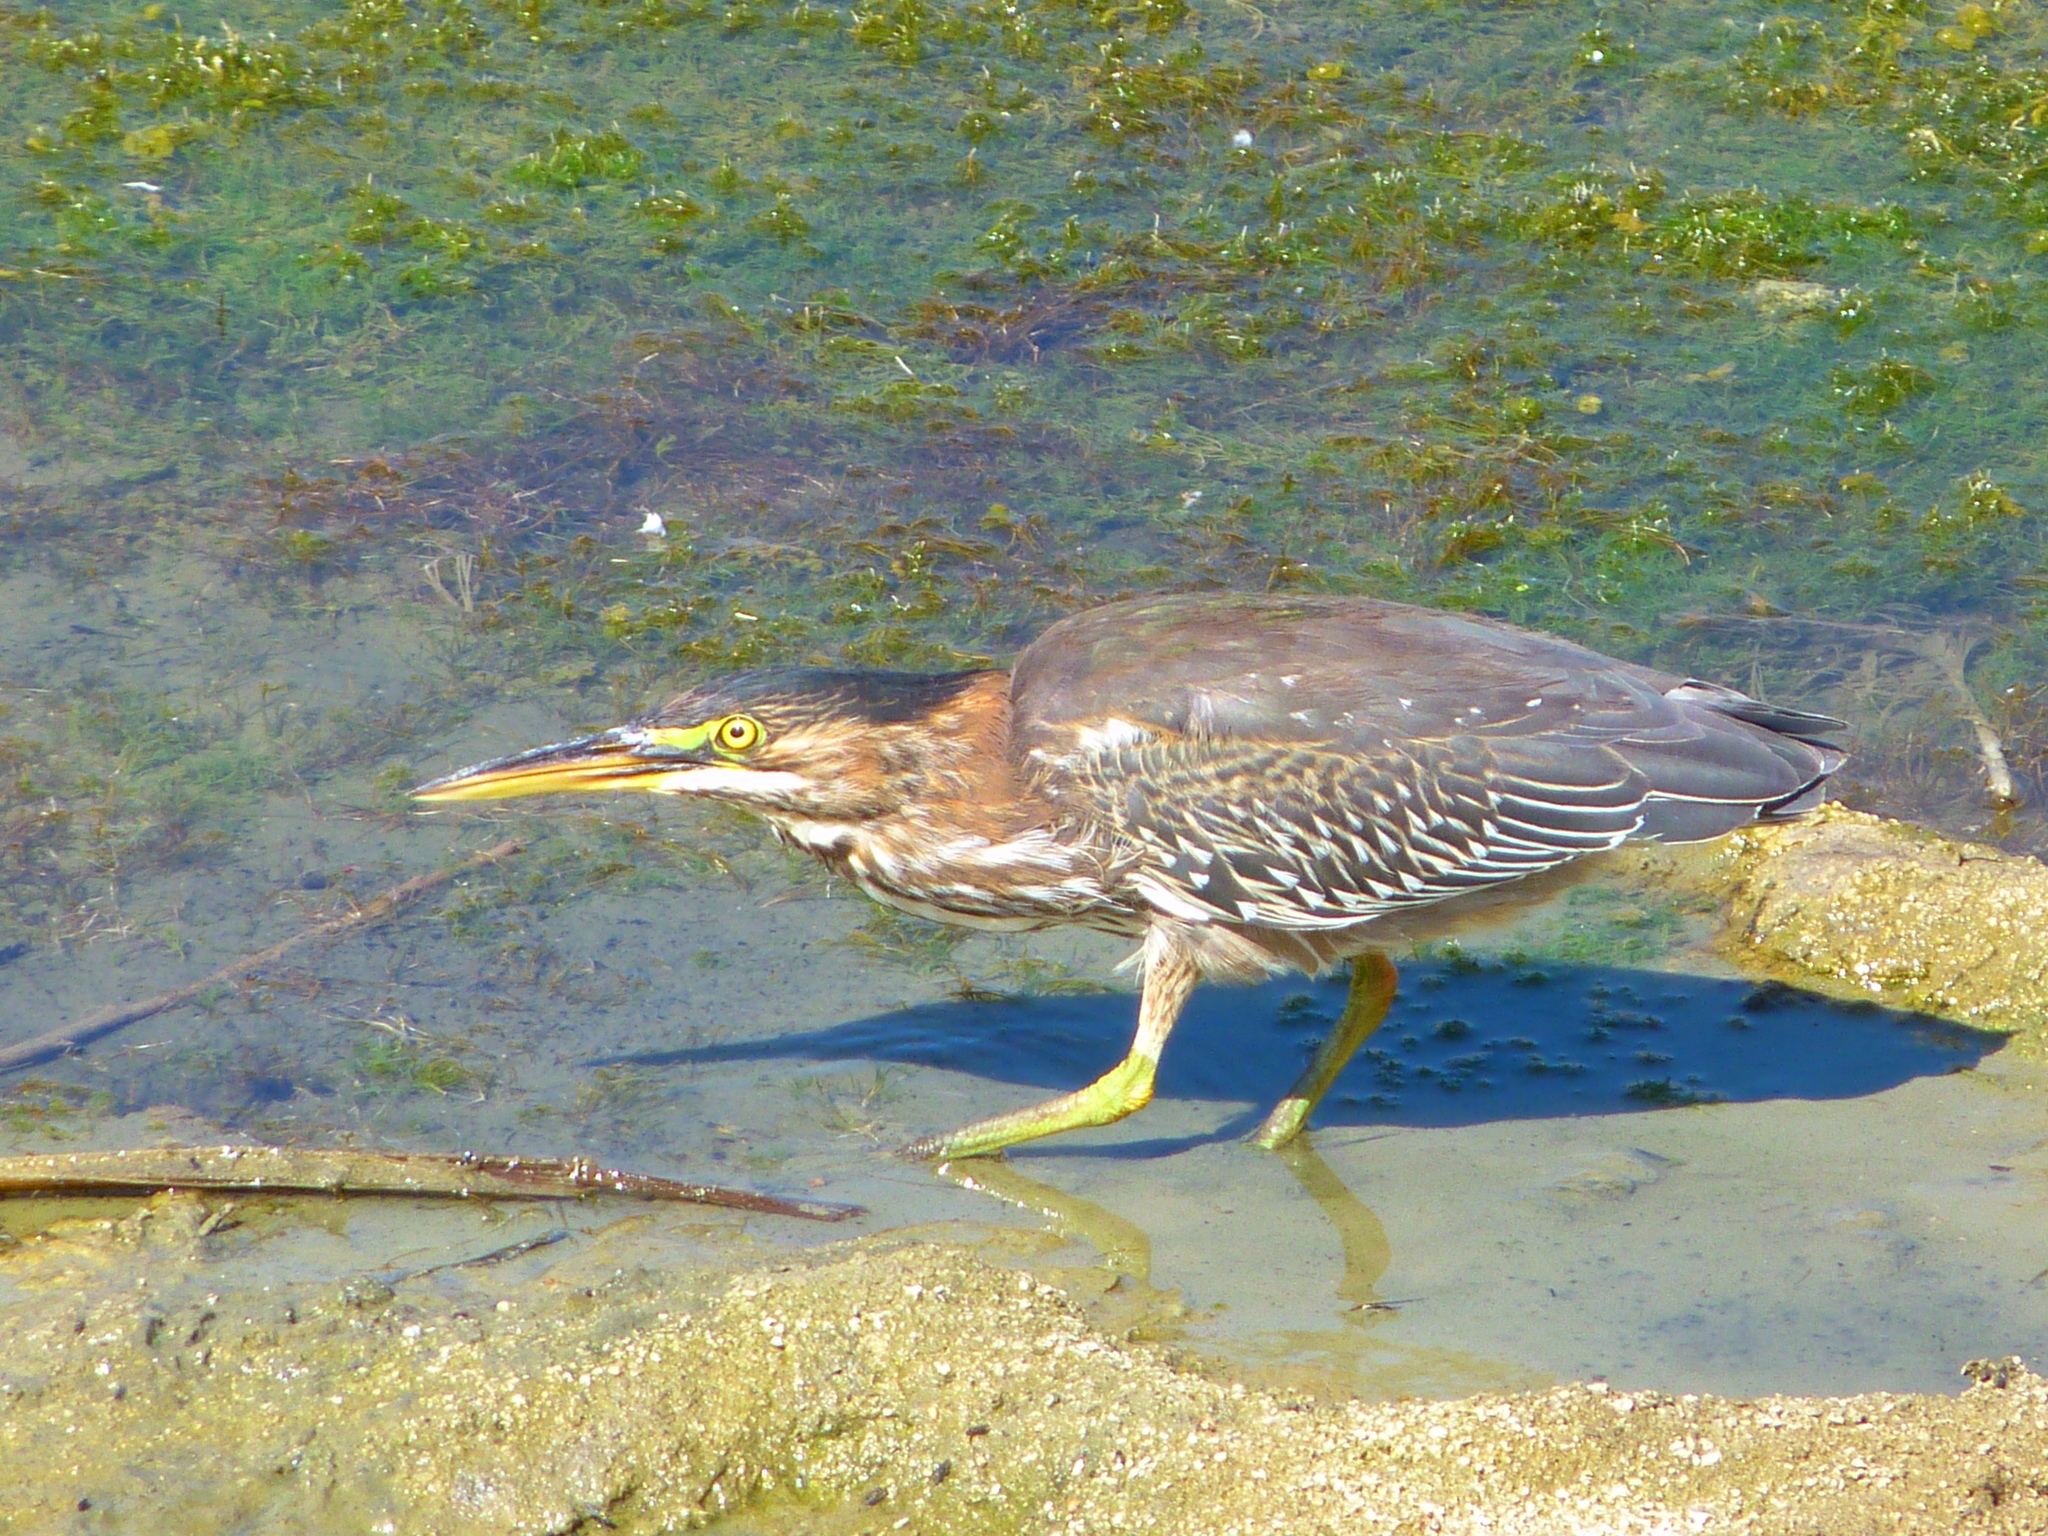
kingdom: Animalia
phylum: Chordata
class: Aves
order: Pelecaniformes
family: Ardeidae
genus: Butorides
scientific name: Butorides virescens
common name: Green heron
